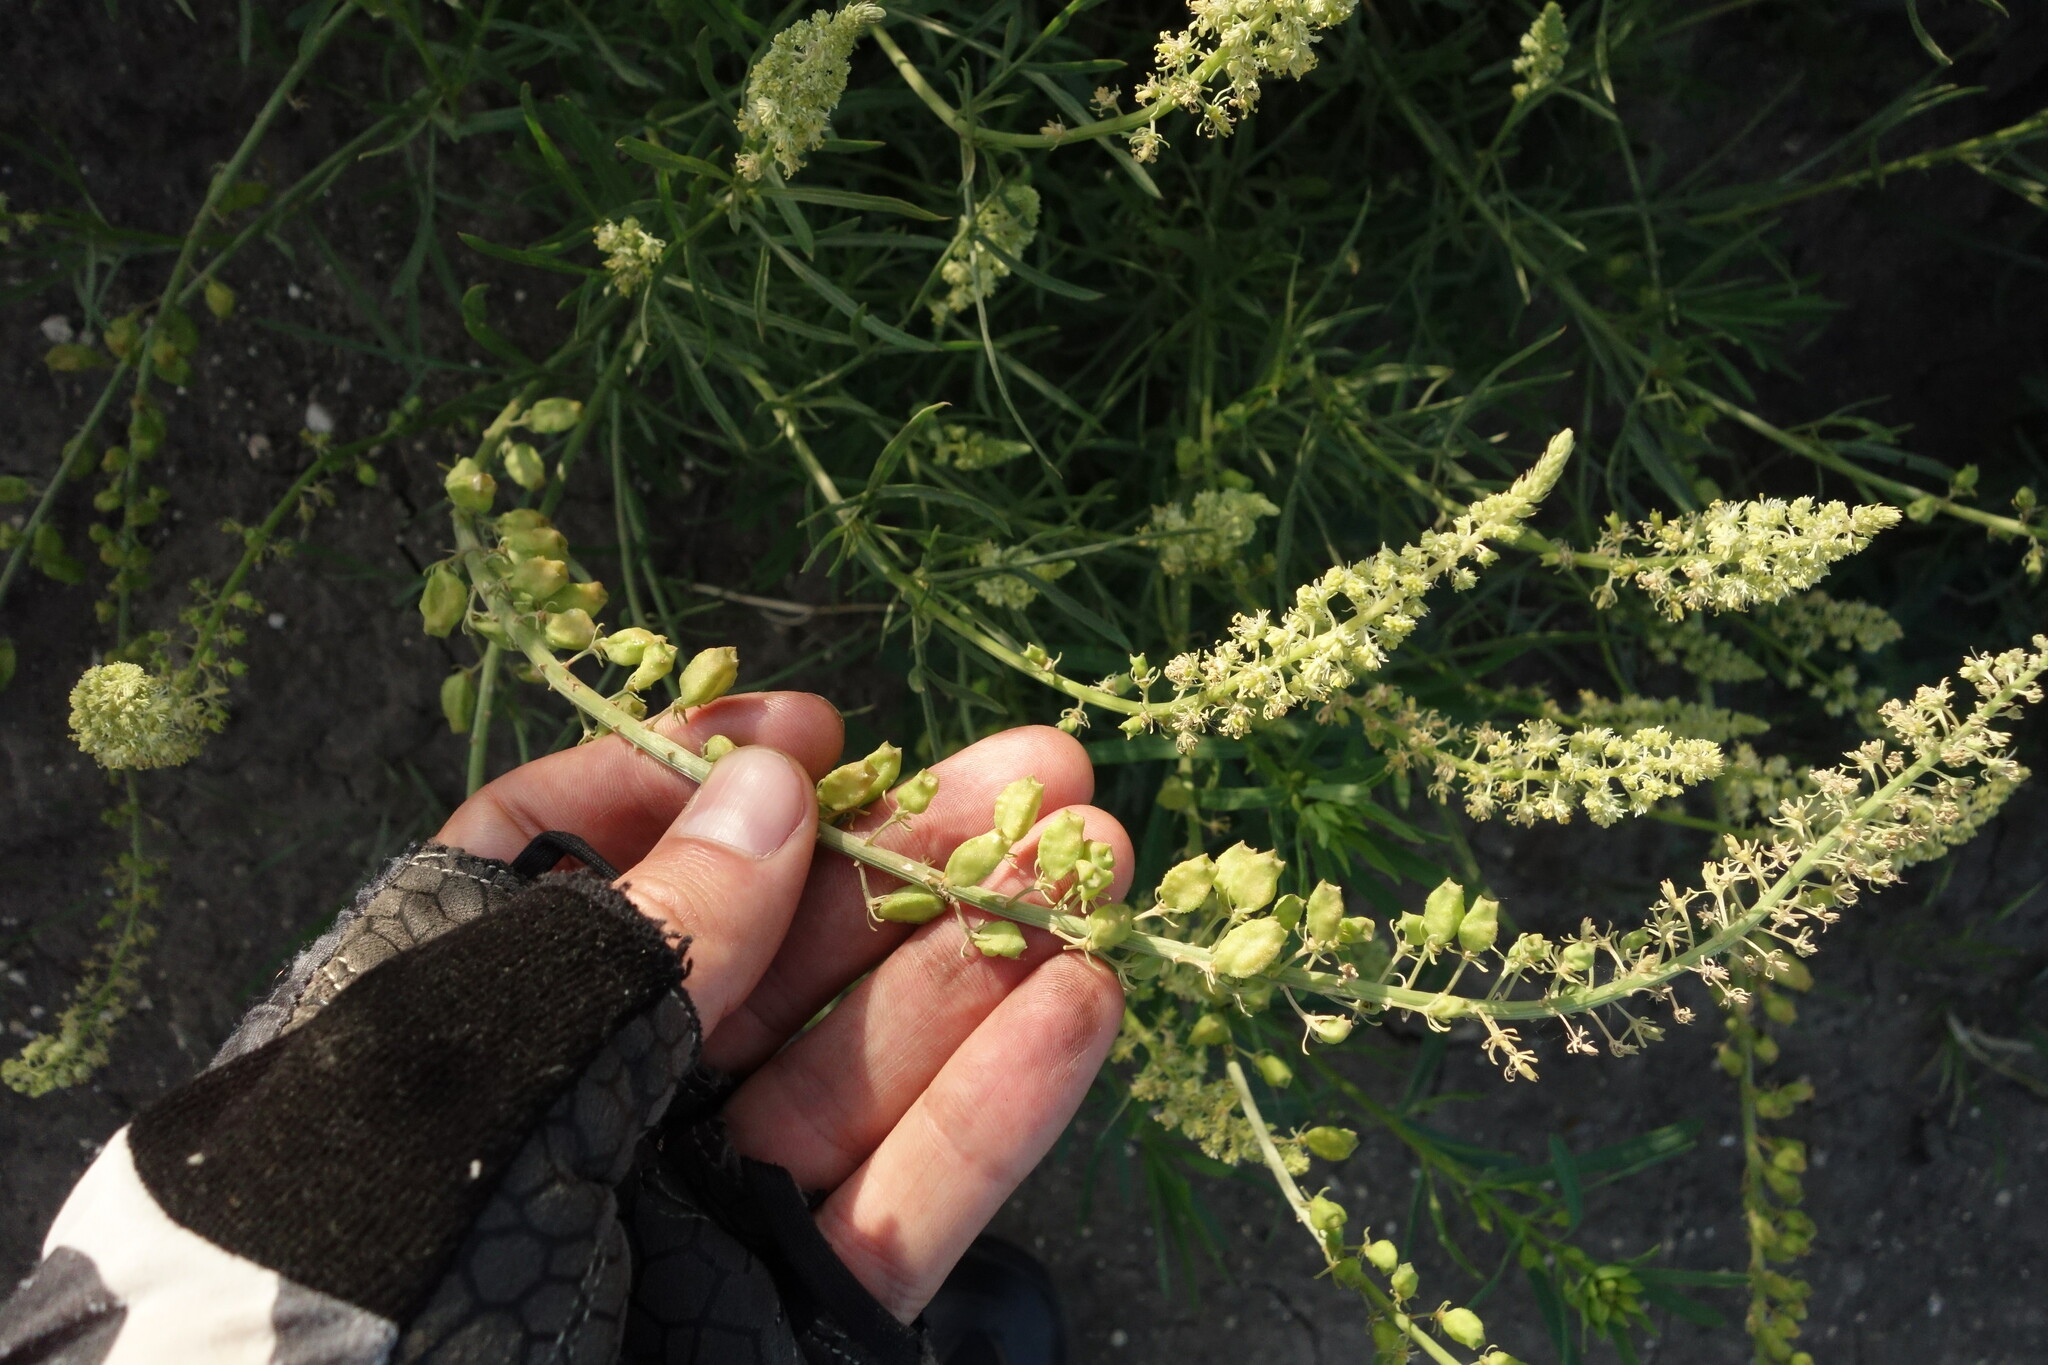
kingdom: Plantae
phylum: Tracheophyta
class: Magnoliopsida
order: Brassicales
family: Resedaceae
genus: Reseda
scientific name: Reseda lutea
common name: Wild mignonette
